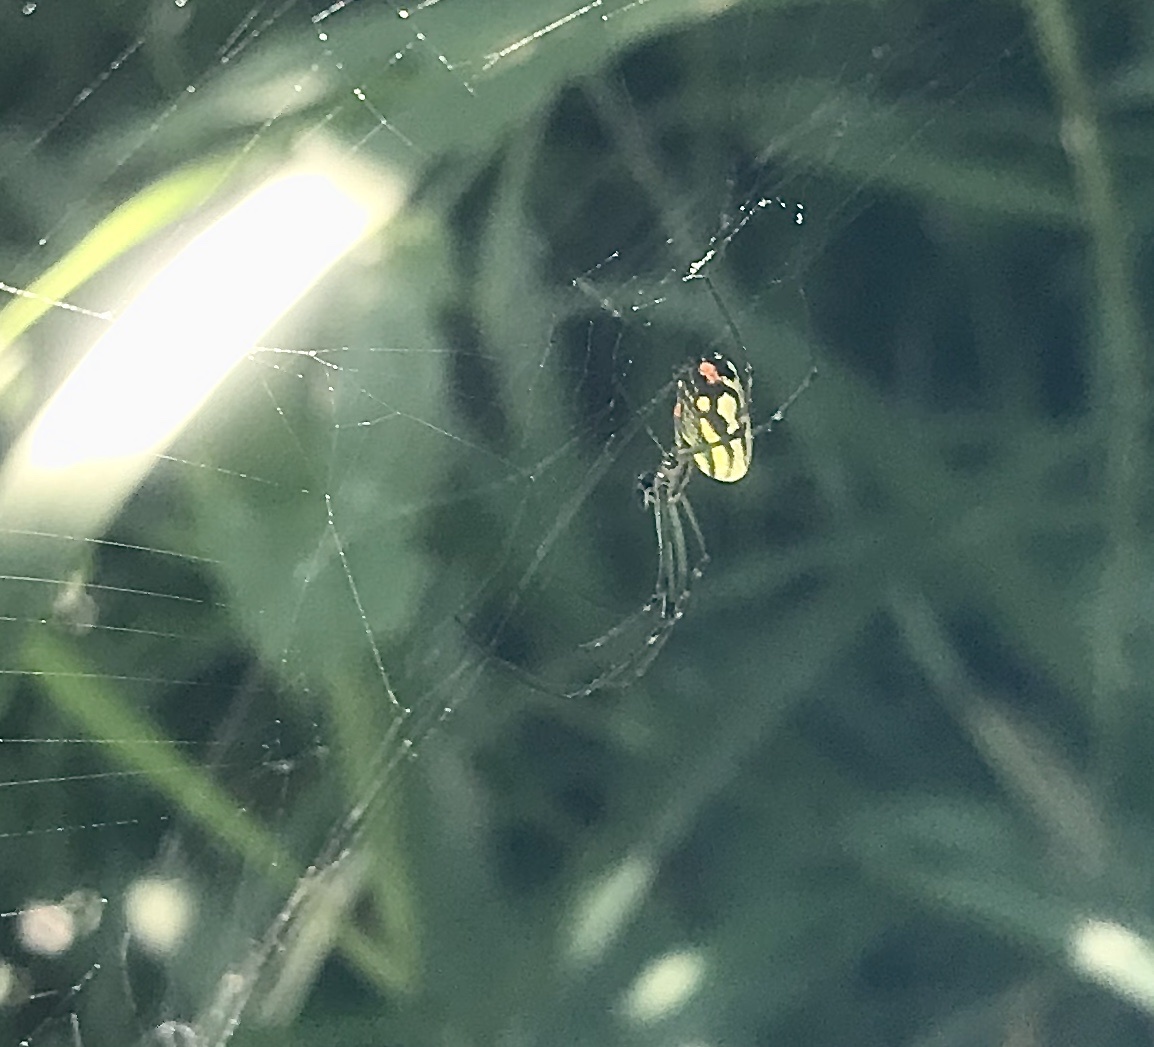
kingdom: Animalia
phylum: Arthropoda
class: Arachnida
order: Araneae
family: Tetragnathidae
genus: Leucauge
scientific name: Leucauge argyrobapta
